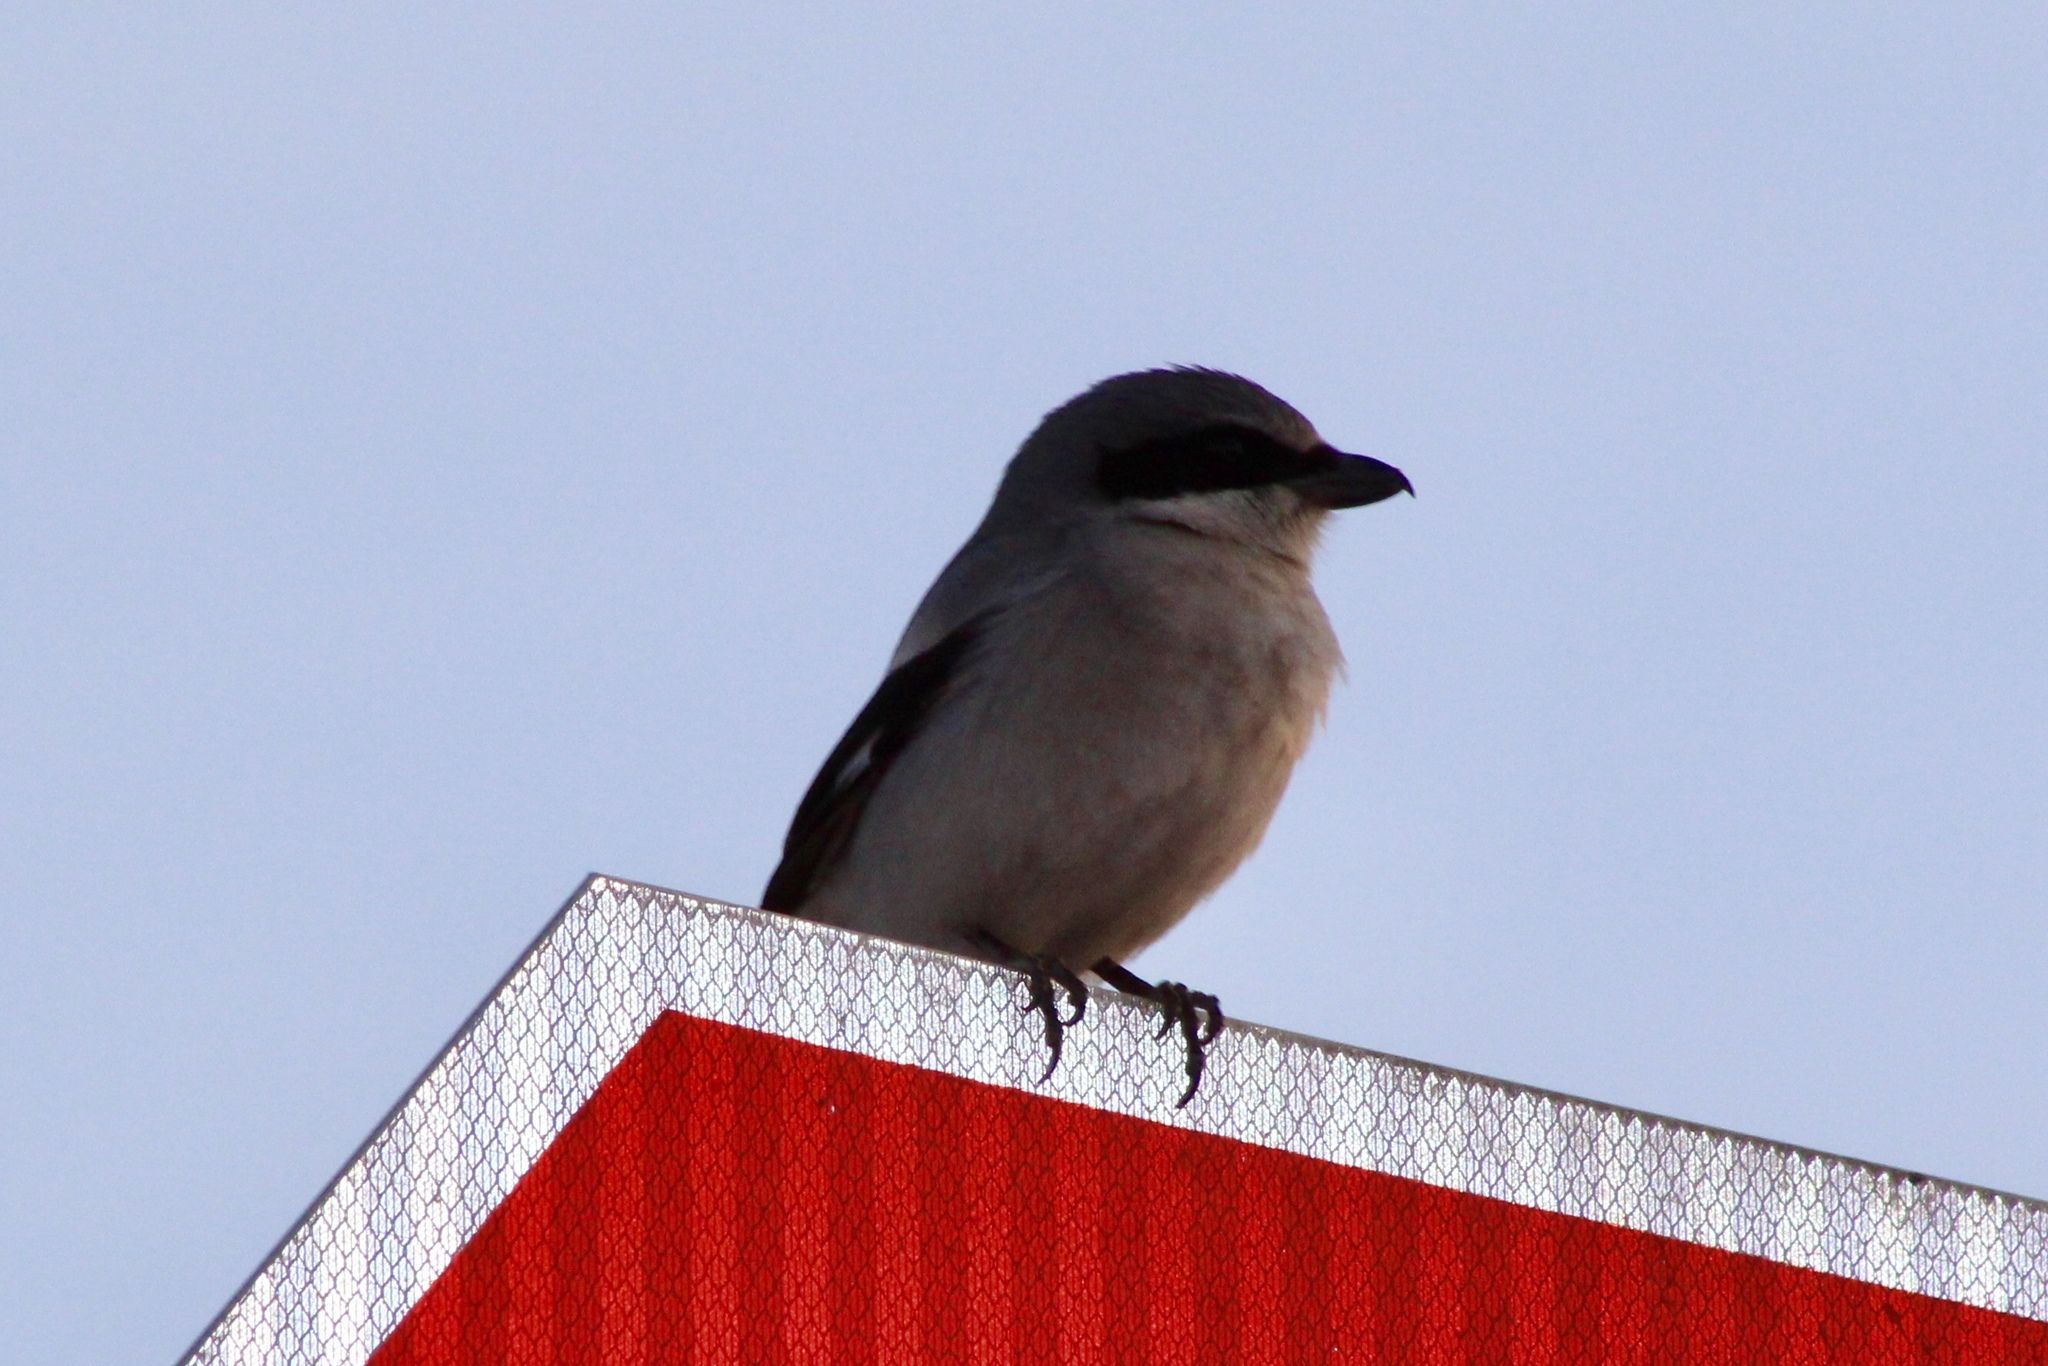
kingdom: Animalia
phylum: Chordata
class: Aves
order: Passeriformes
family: Laniidae
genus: Lanius
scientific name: Lanius ludovicianus
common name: Loggerhead shrike
